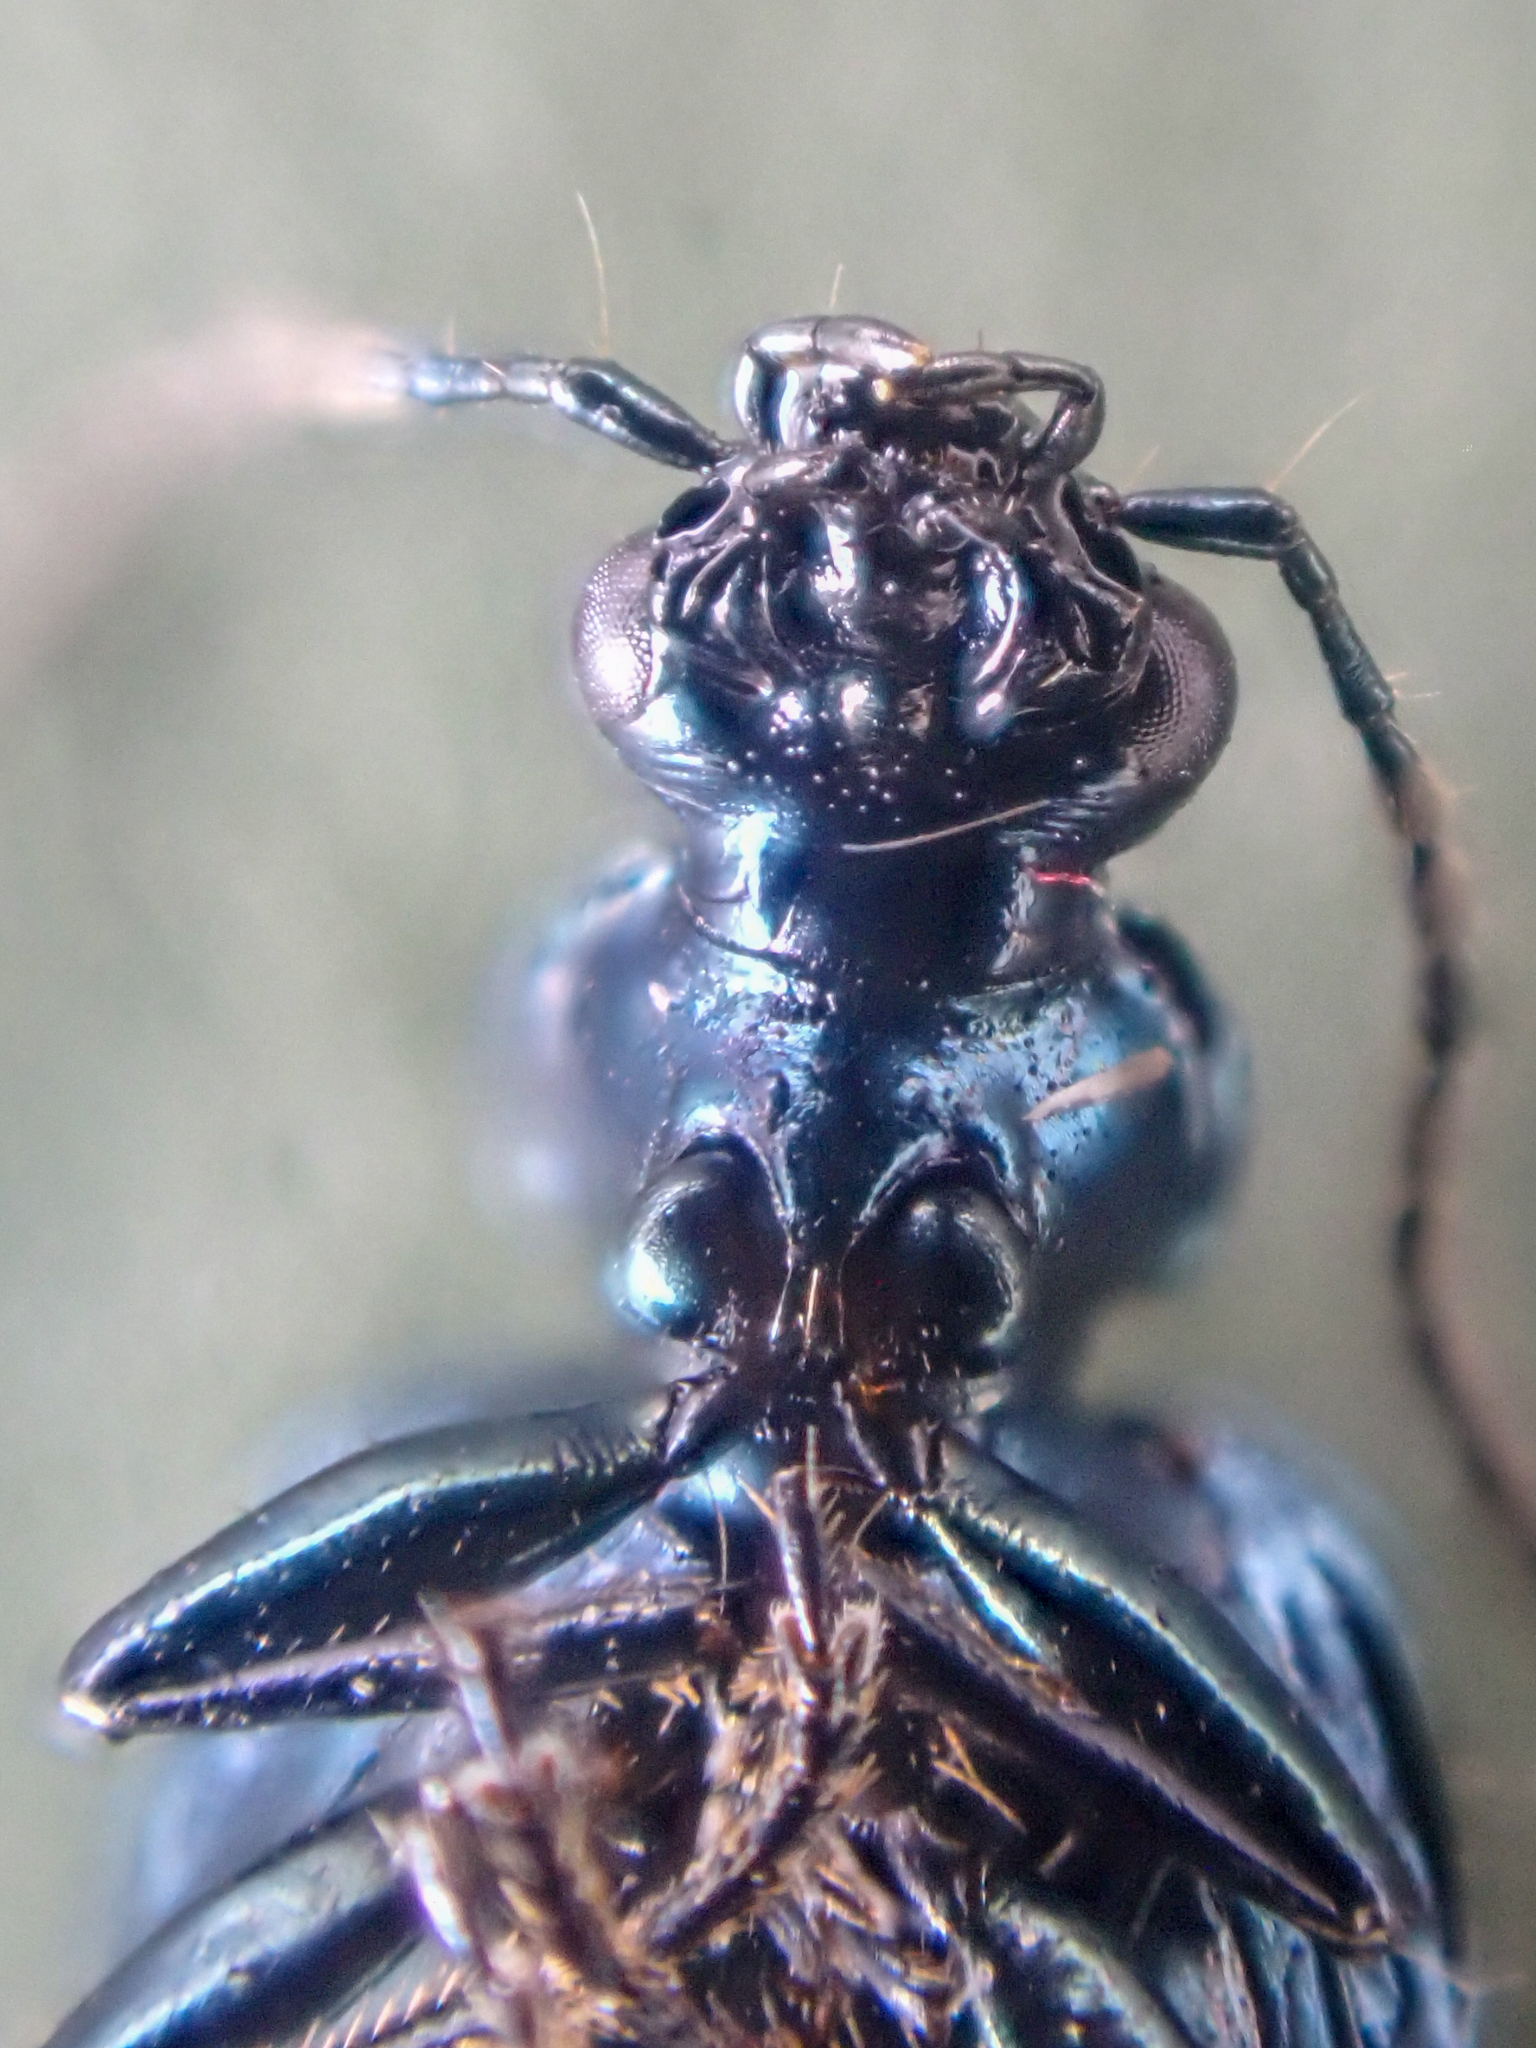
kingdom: Animalia
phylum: Arthropoda
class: Insecta
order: Coleoptera
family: Carabidae
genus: Lebia
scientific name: Lebia viridis
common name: Flower lebia beetle
